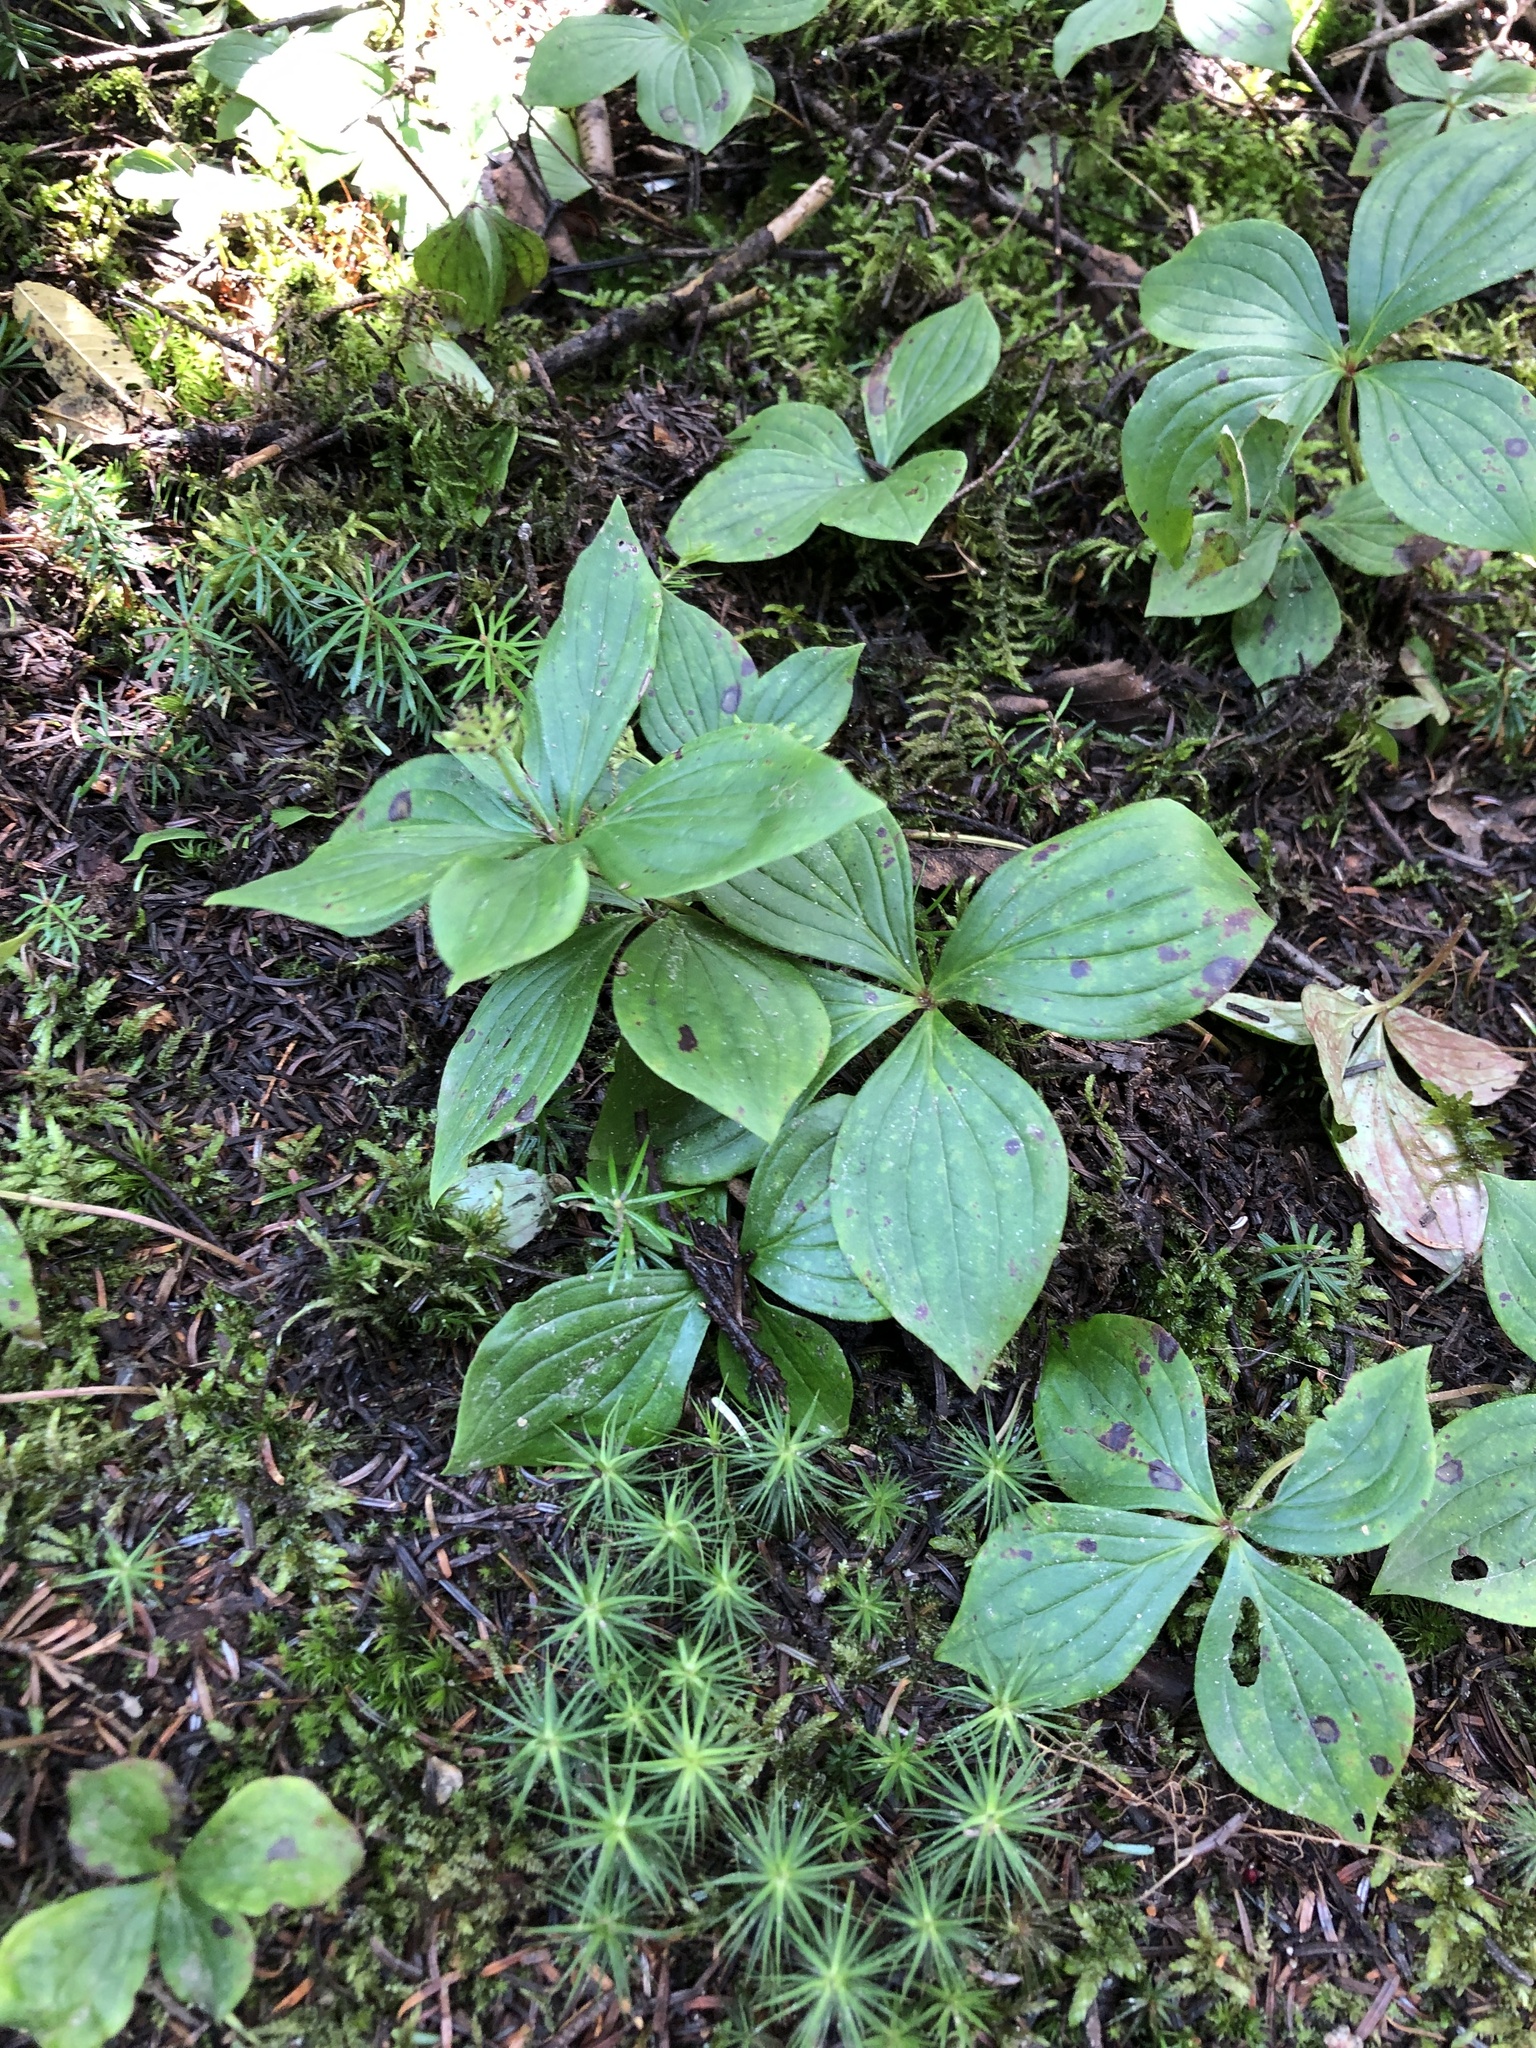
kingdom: Plantae
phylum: Tracheophyta
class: Magnoliopsida
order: Cornales
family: Cornaceae
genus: Cornus
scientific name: Cornus canadensis
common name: Creeping dogwood
